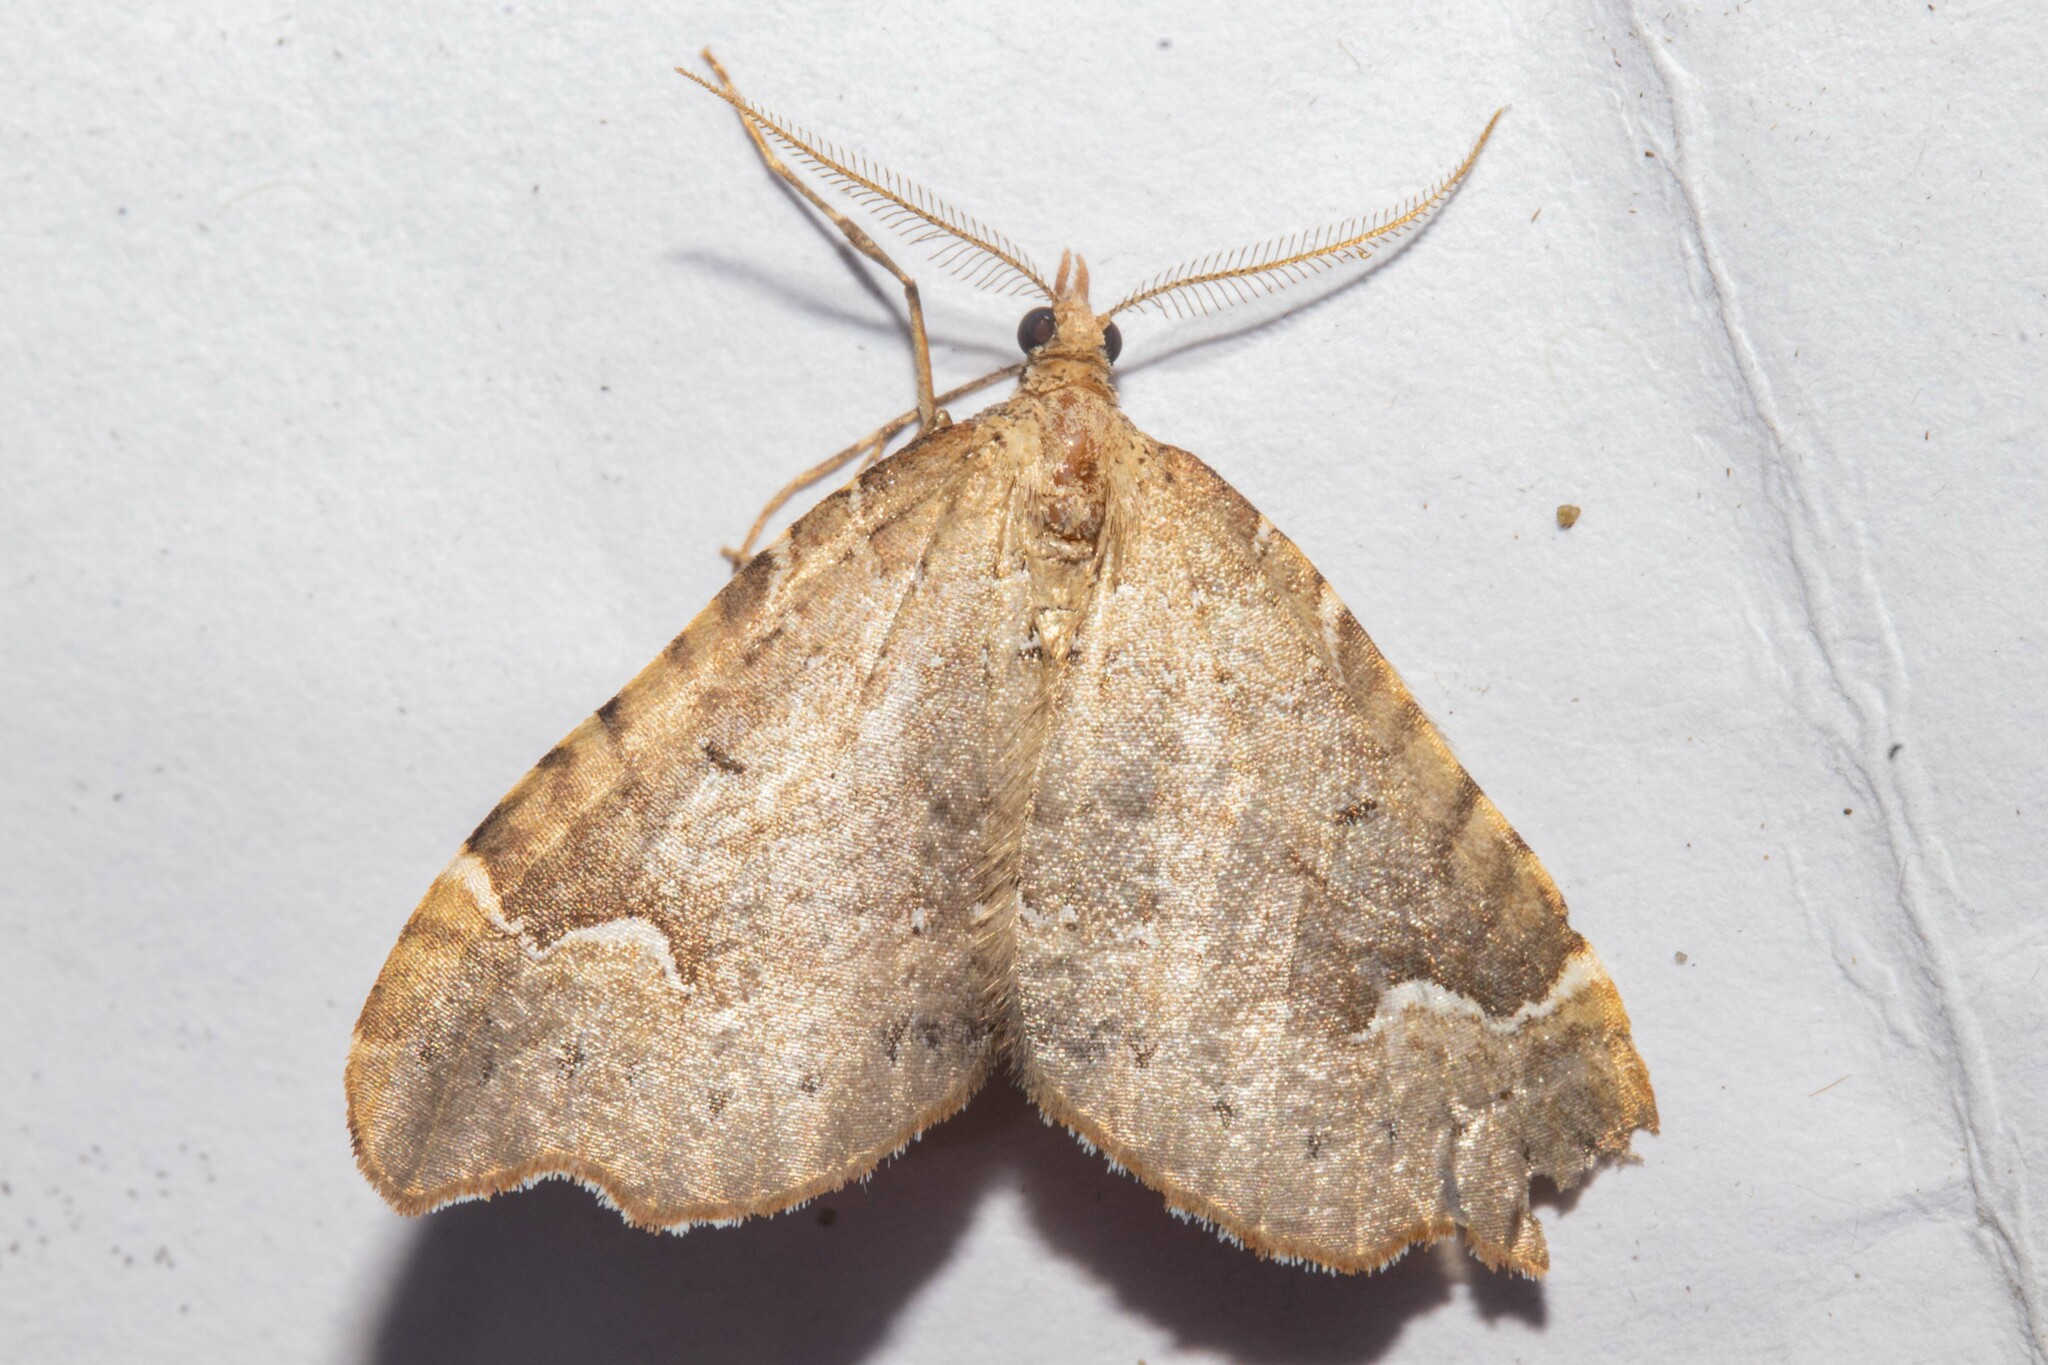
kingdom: Animalia
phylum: Arthropoda
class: Insecta
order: Lepidoptera
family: Geometridae
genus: Asaphodes
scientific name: Asaphodes camelias
